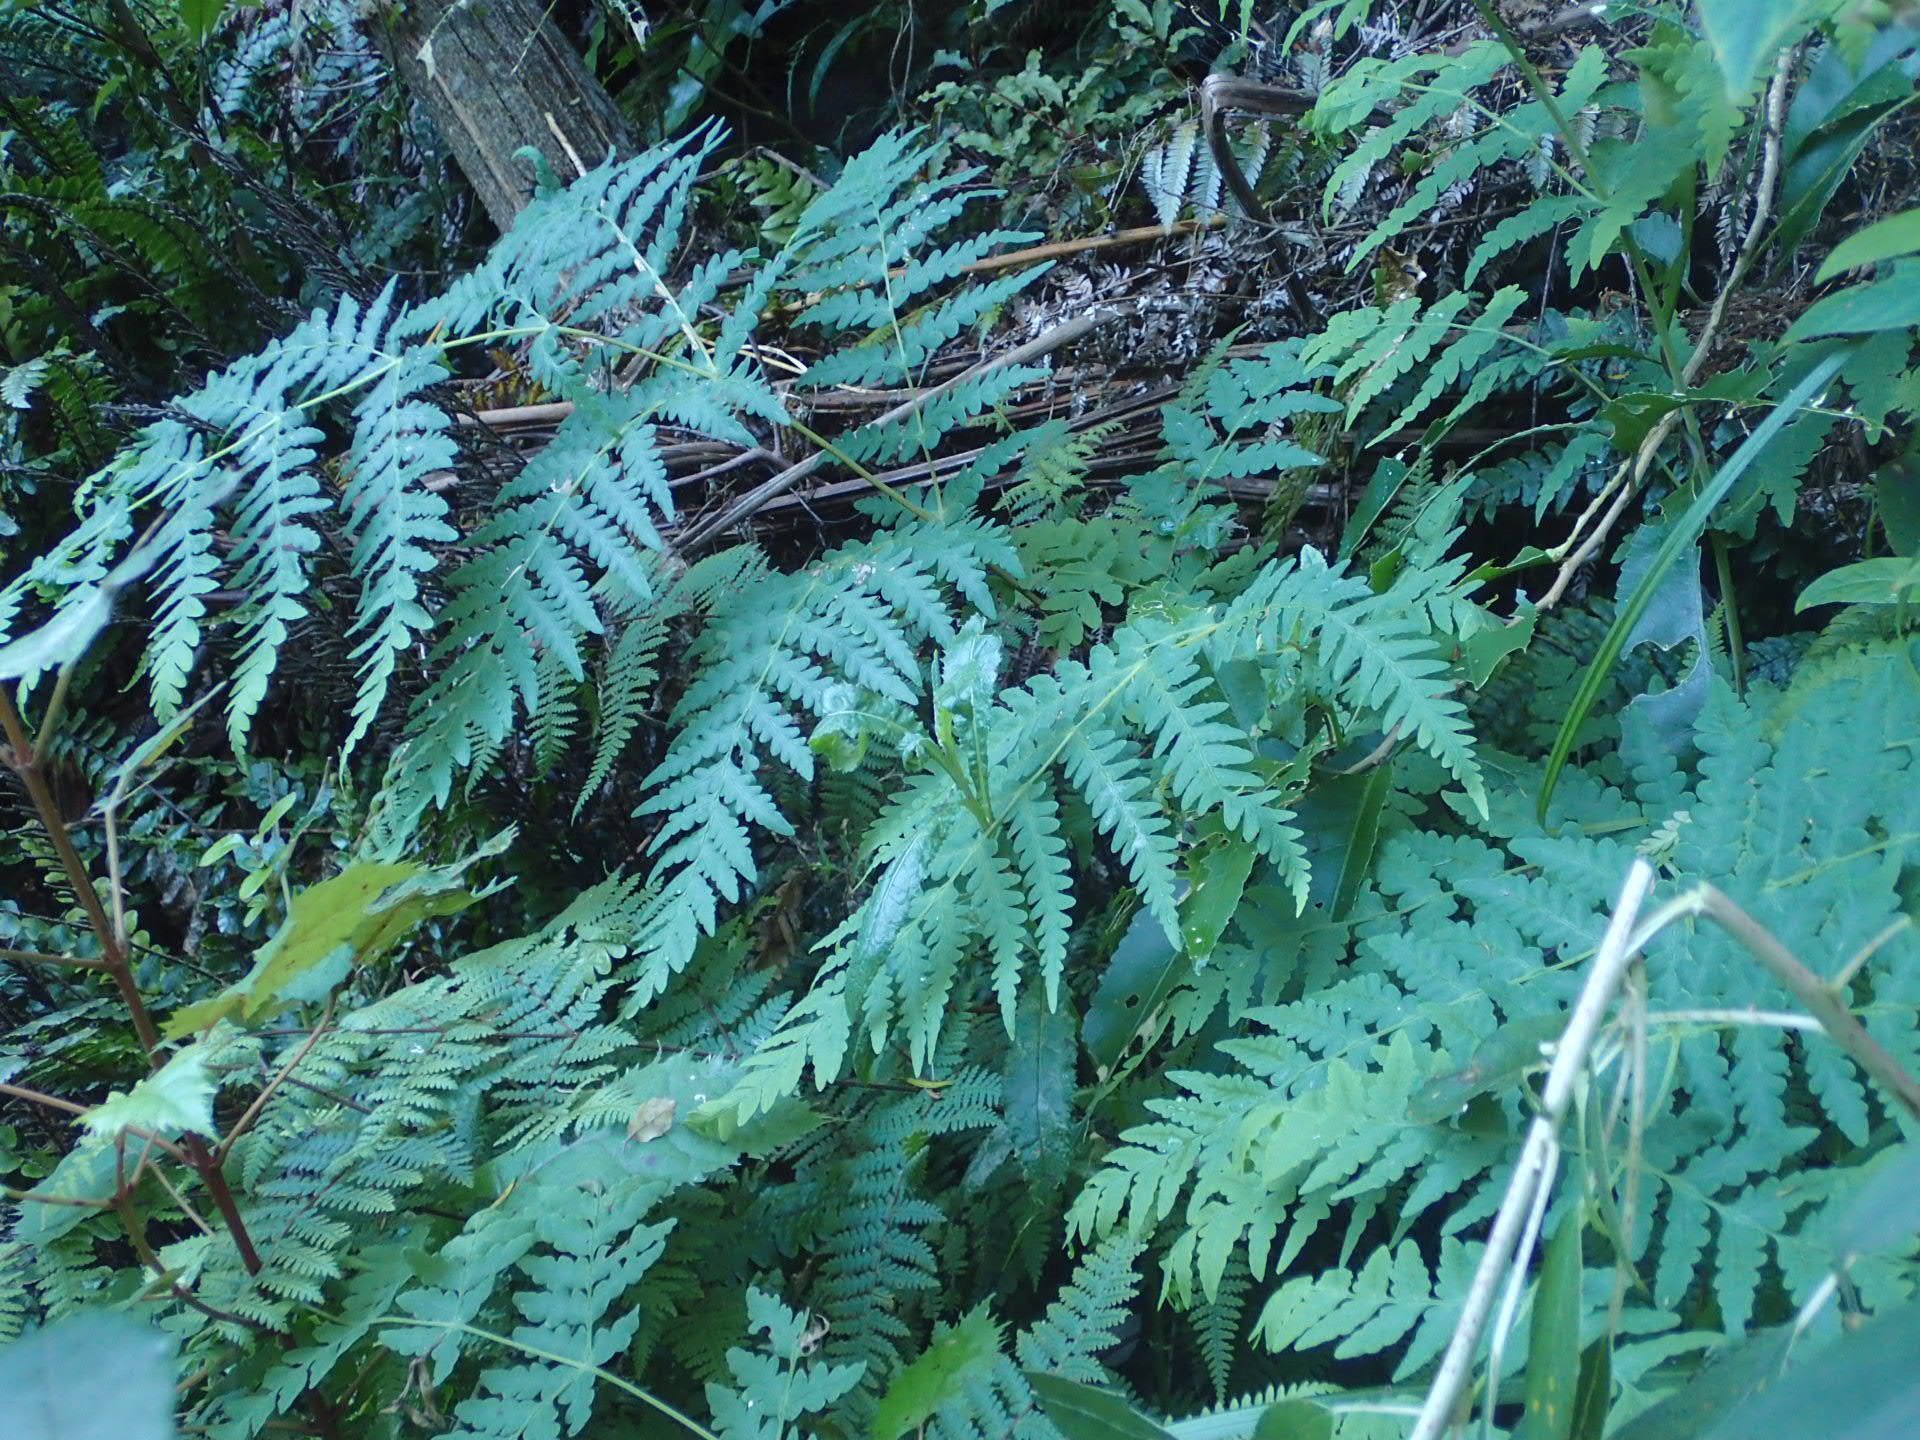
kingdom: Plantae
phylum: Tracheophyta
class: Polypodiopsida
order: Polypodiales
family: Dennstaedtiaceae
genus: Histiopteris
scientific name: Histiopteris incisa
